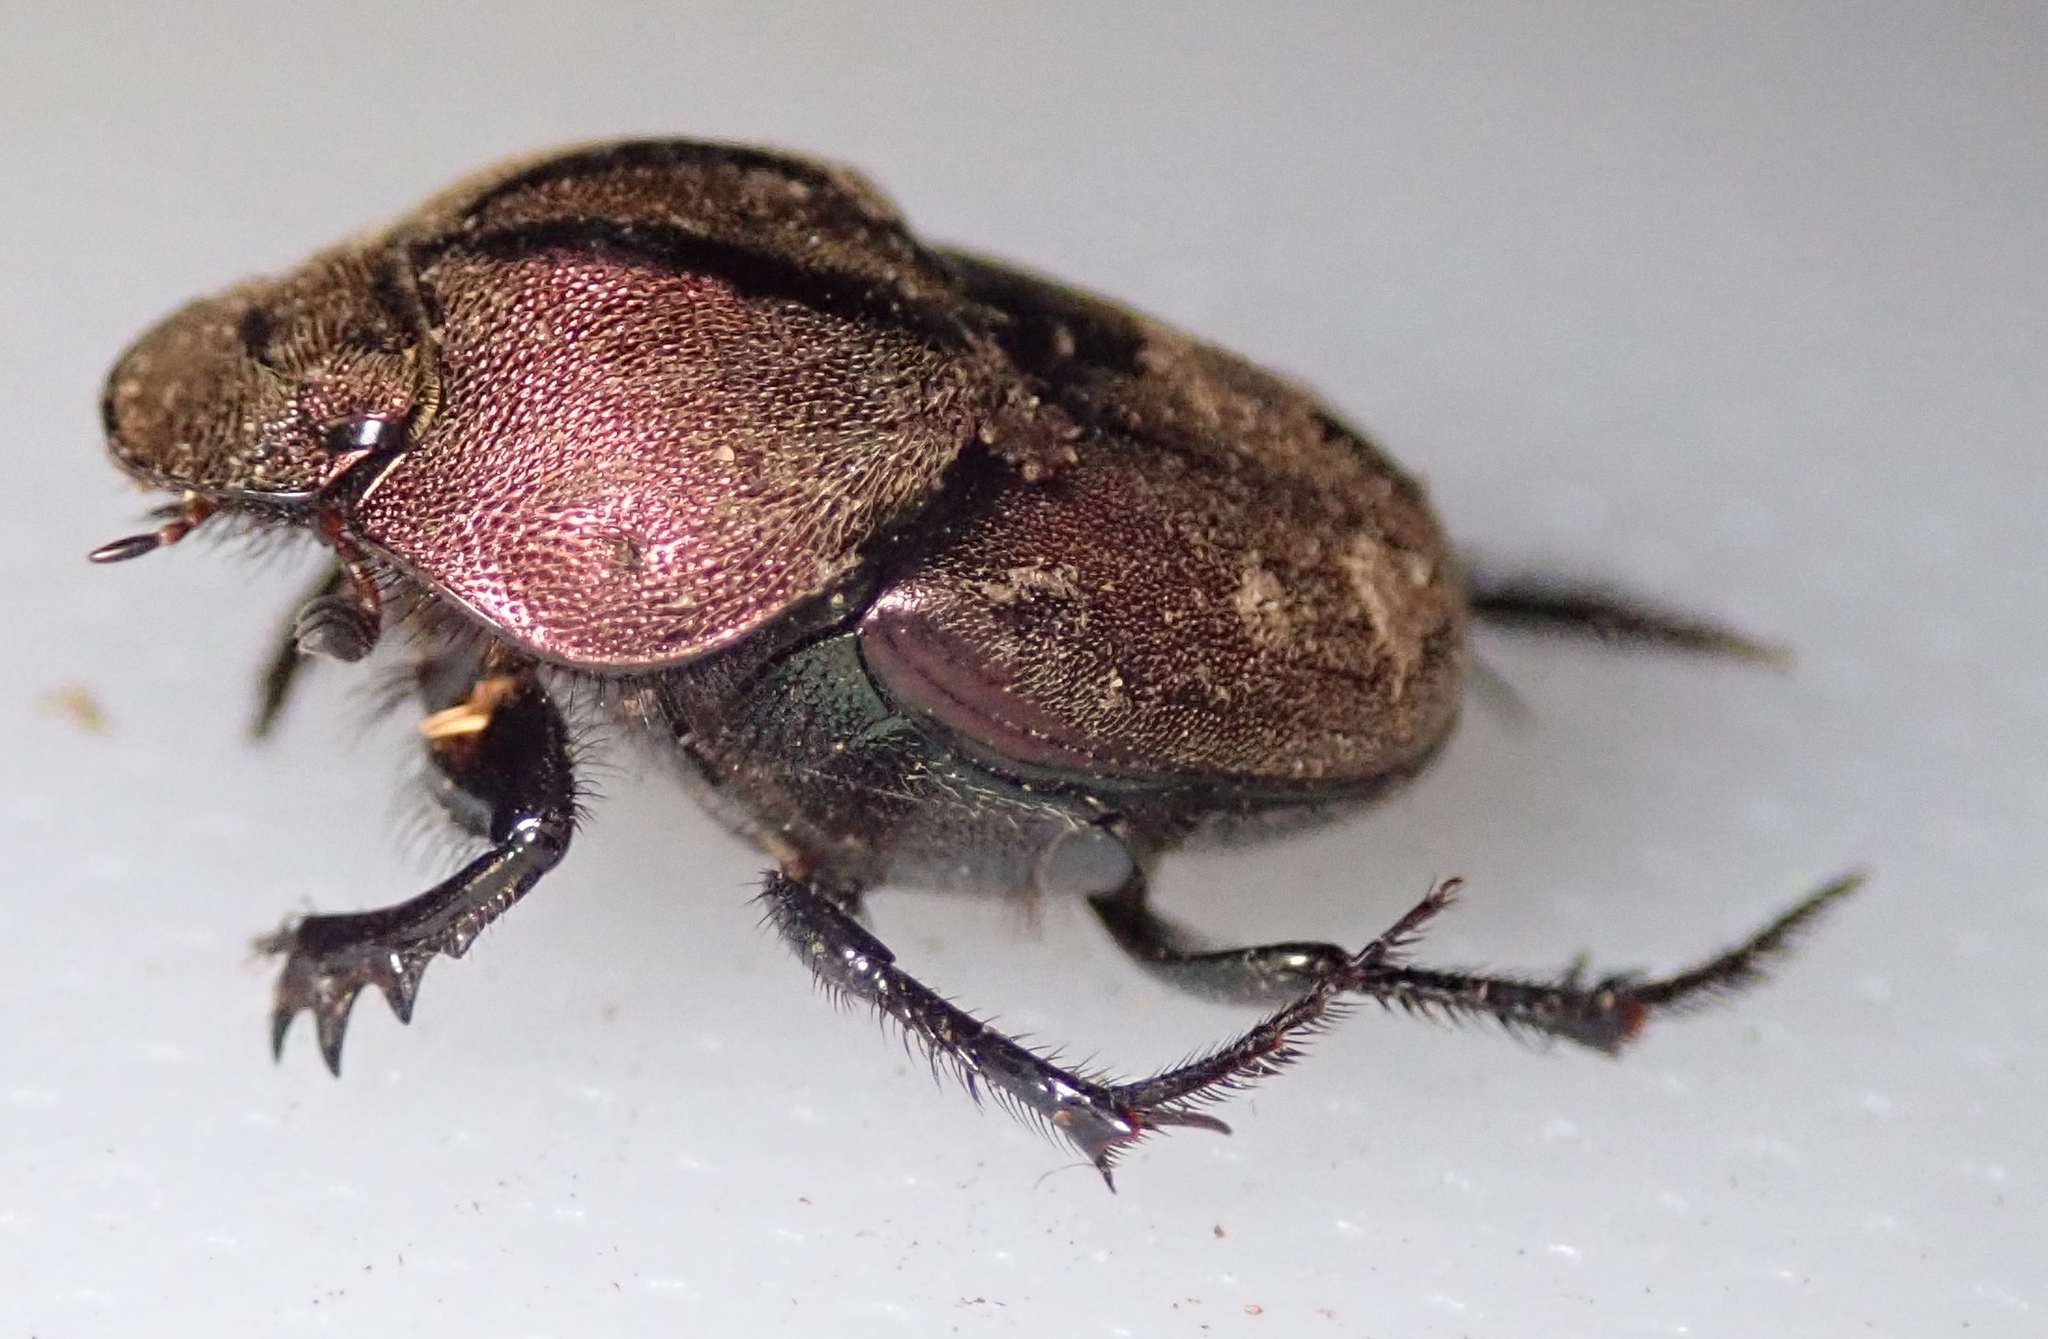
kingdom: Animalia
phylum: Arthropoda
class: Insecta
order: Coleoptera
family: Scarabaeidae
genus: Proagoderus
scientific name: Proagoderus bicallosus
